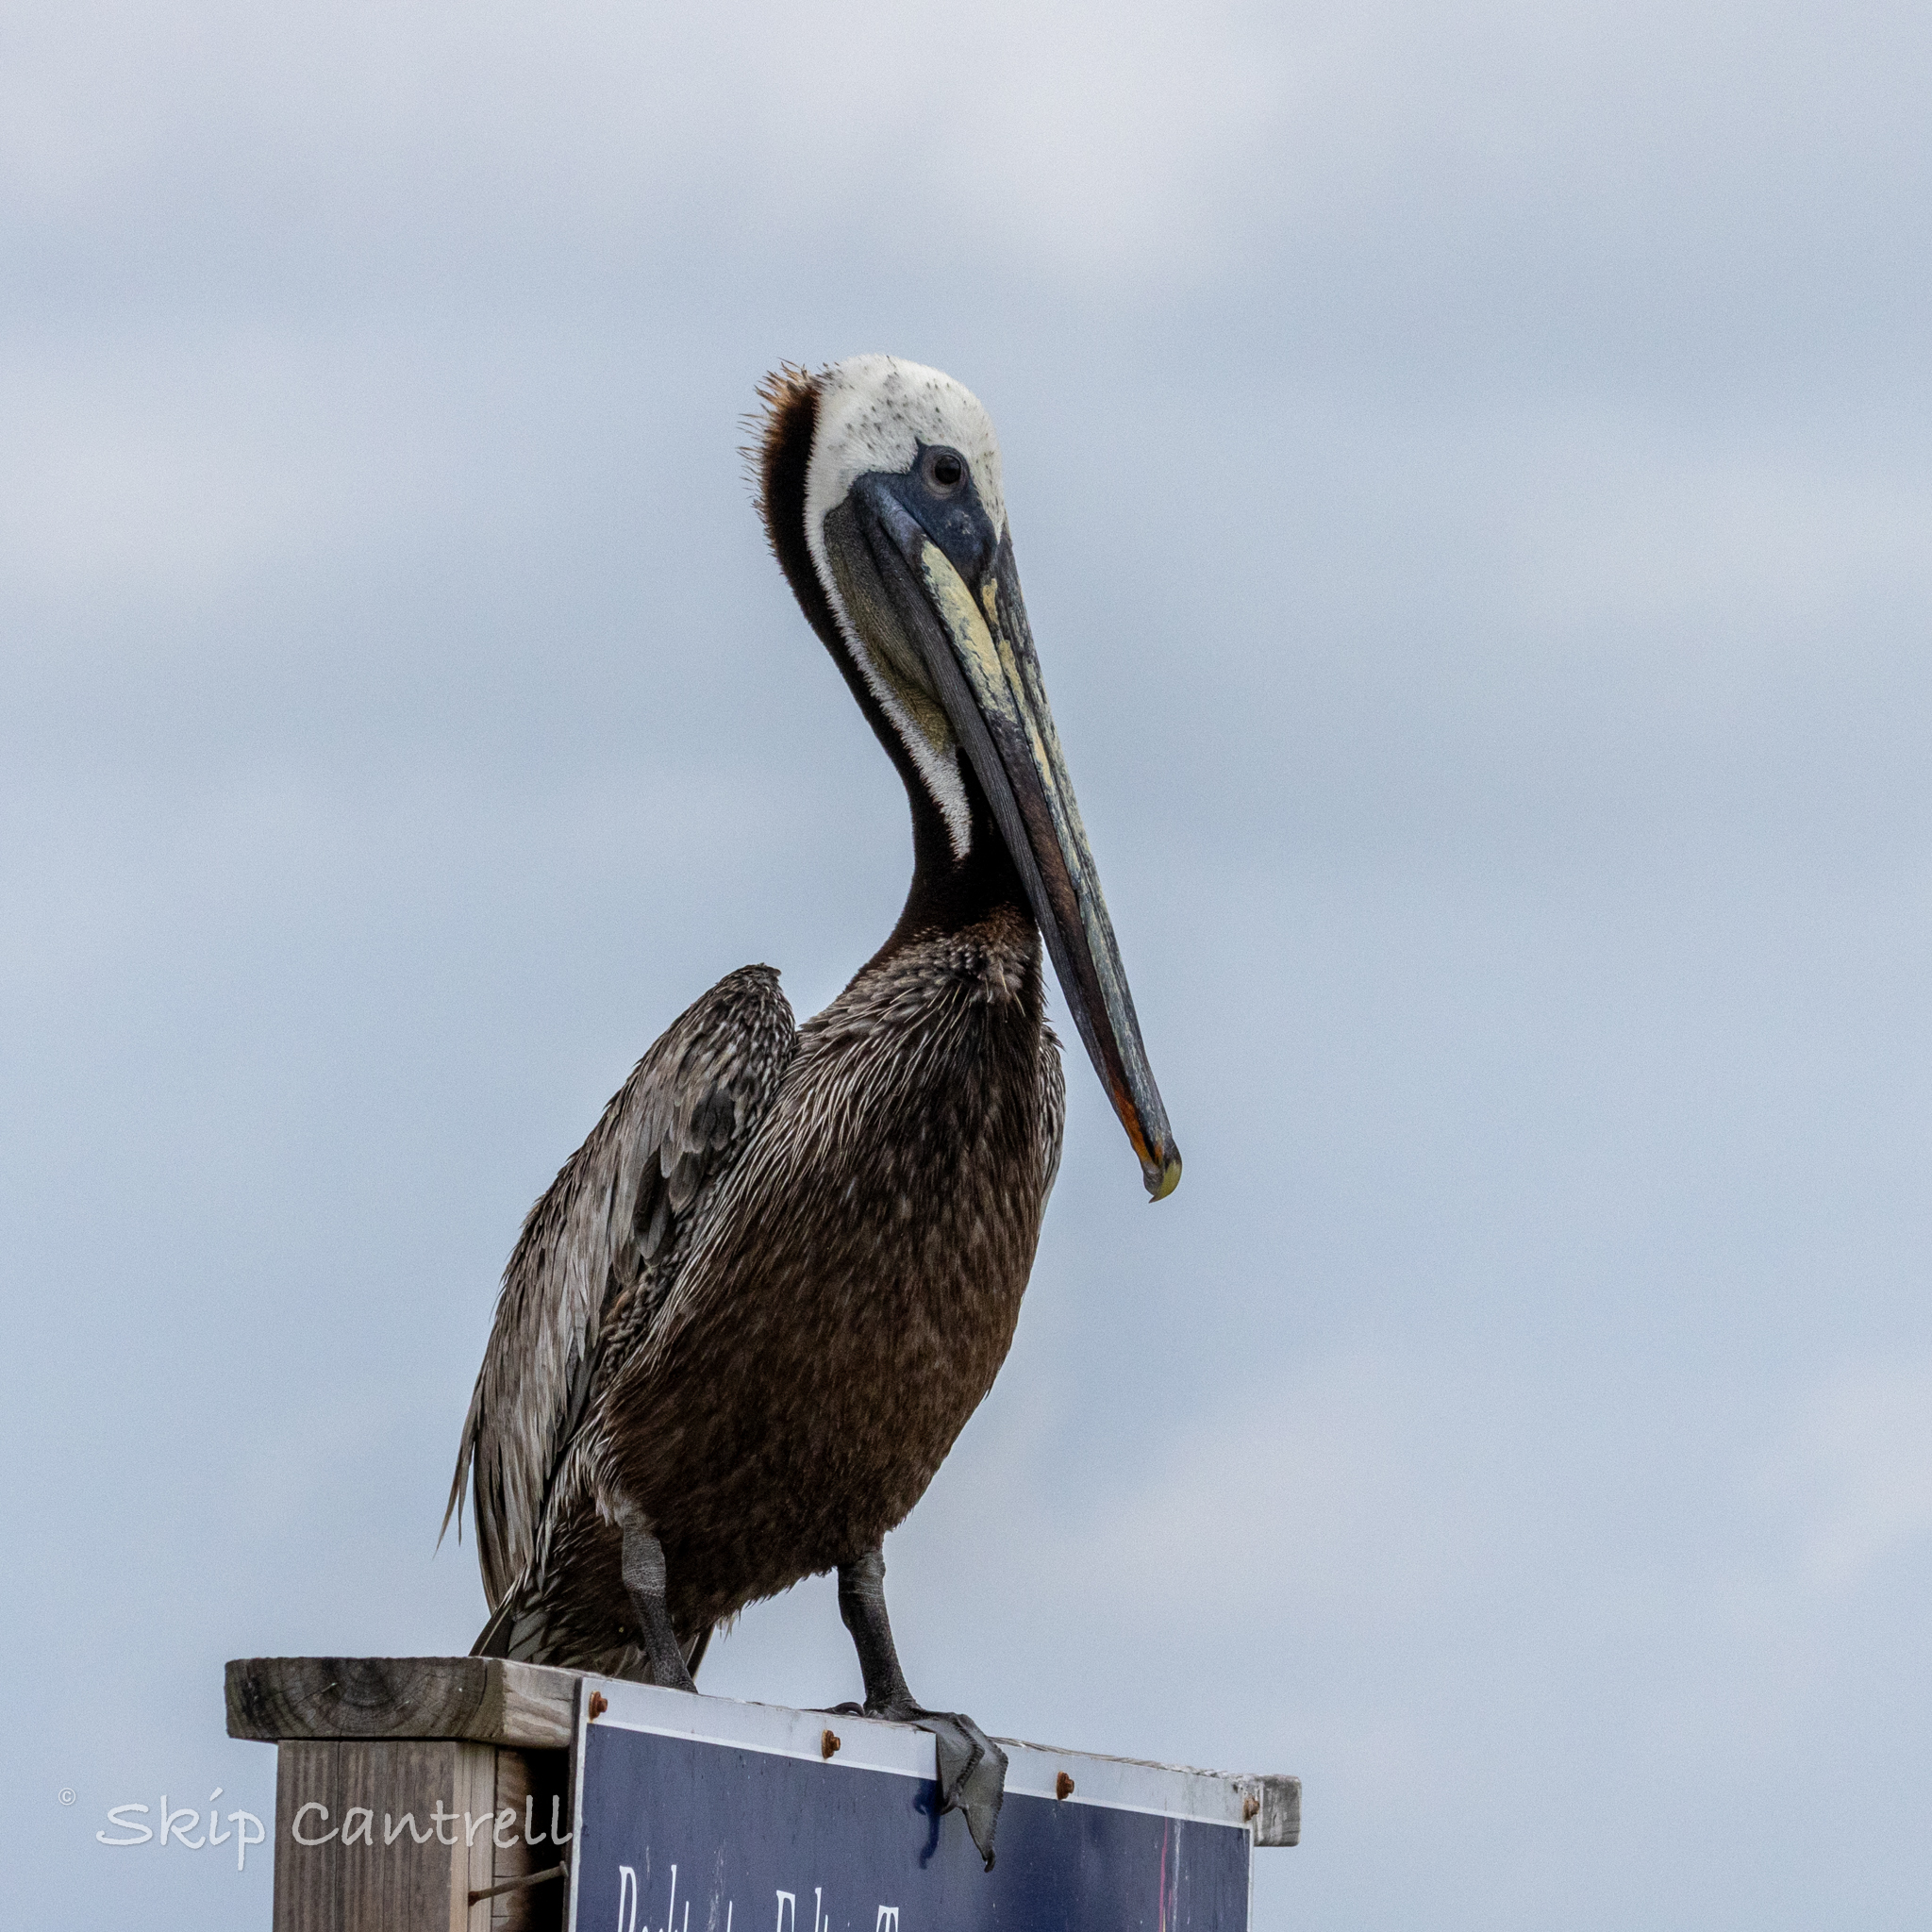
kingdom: Animalia
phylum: Chordata
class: Aves
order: Pelecaniformes
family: Pelecanidae
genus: Pelecanus
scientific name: Pelecanus occidentalis
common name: Brown pelican
